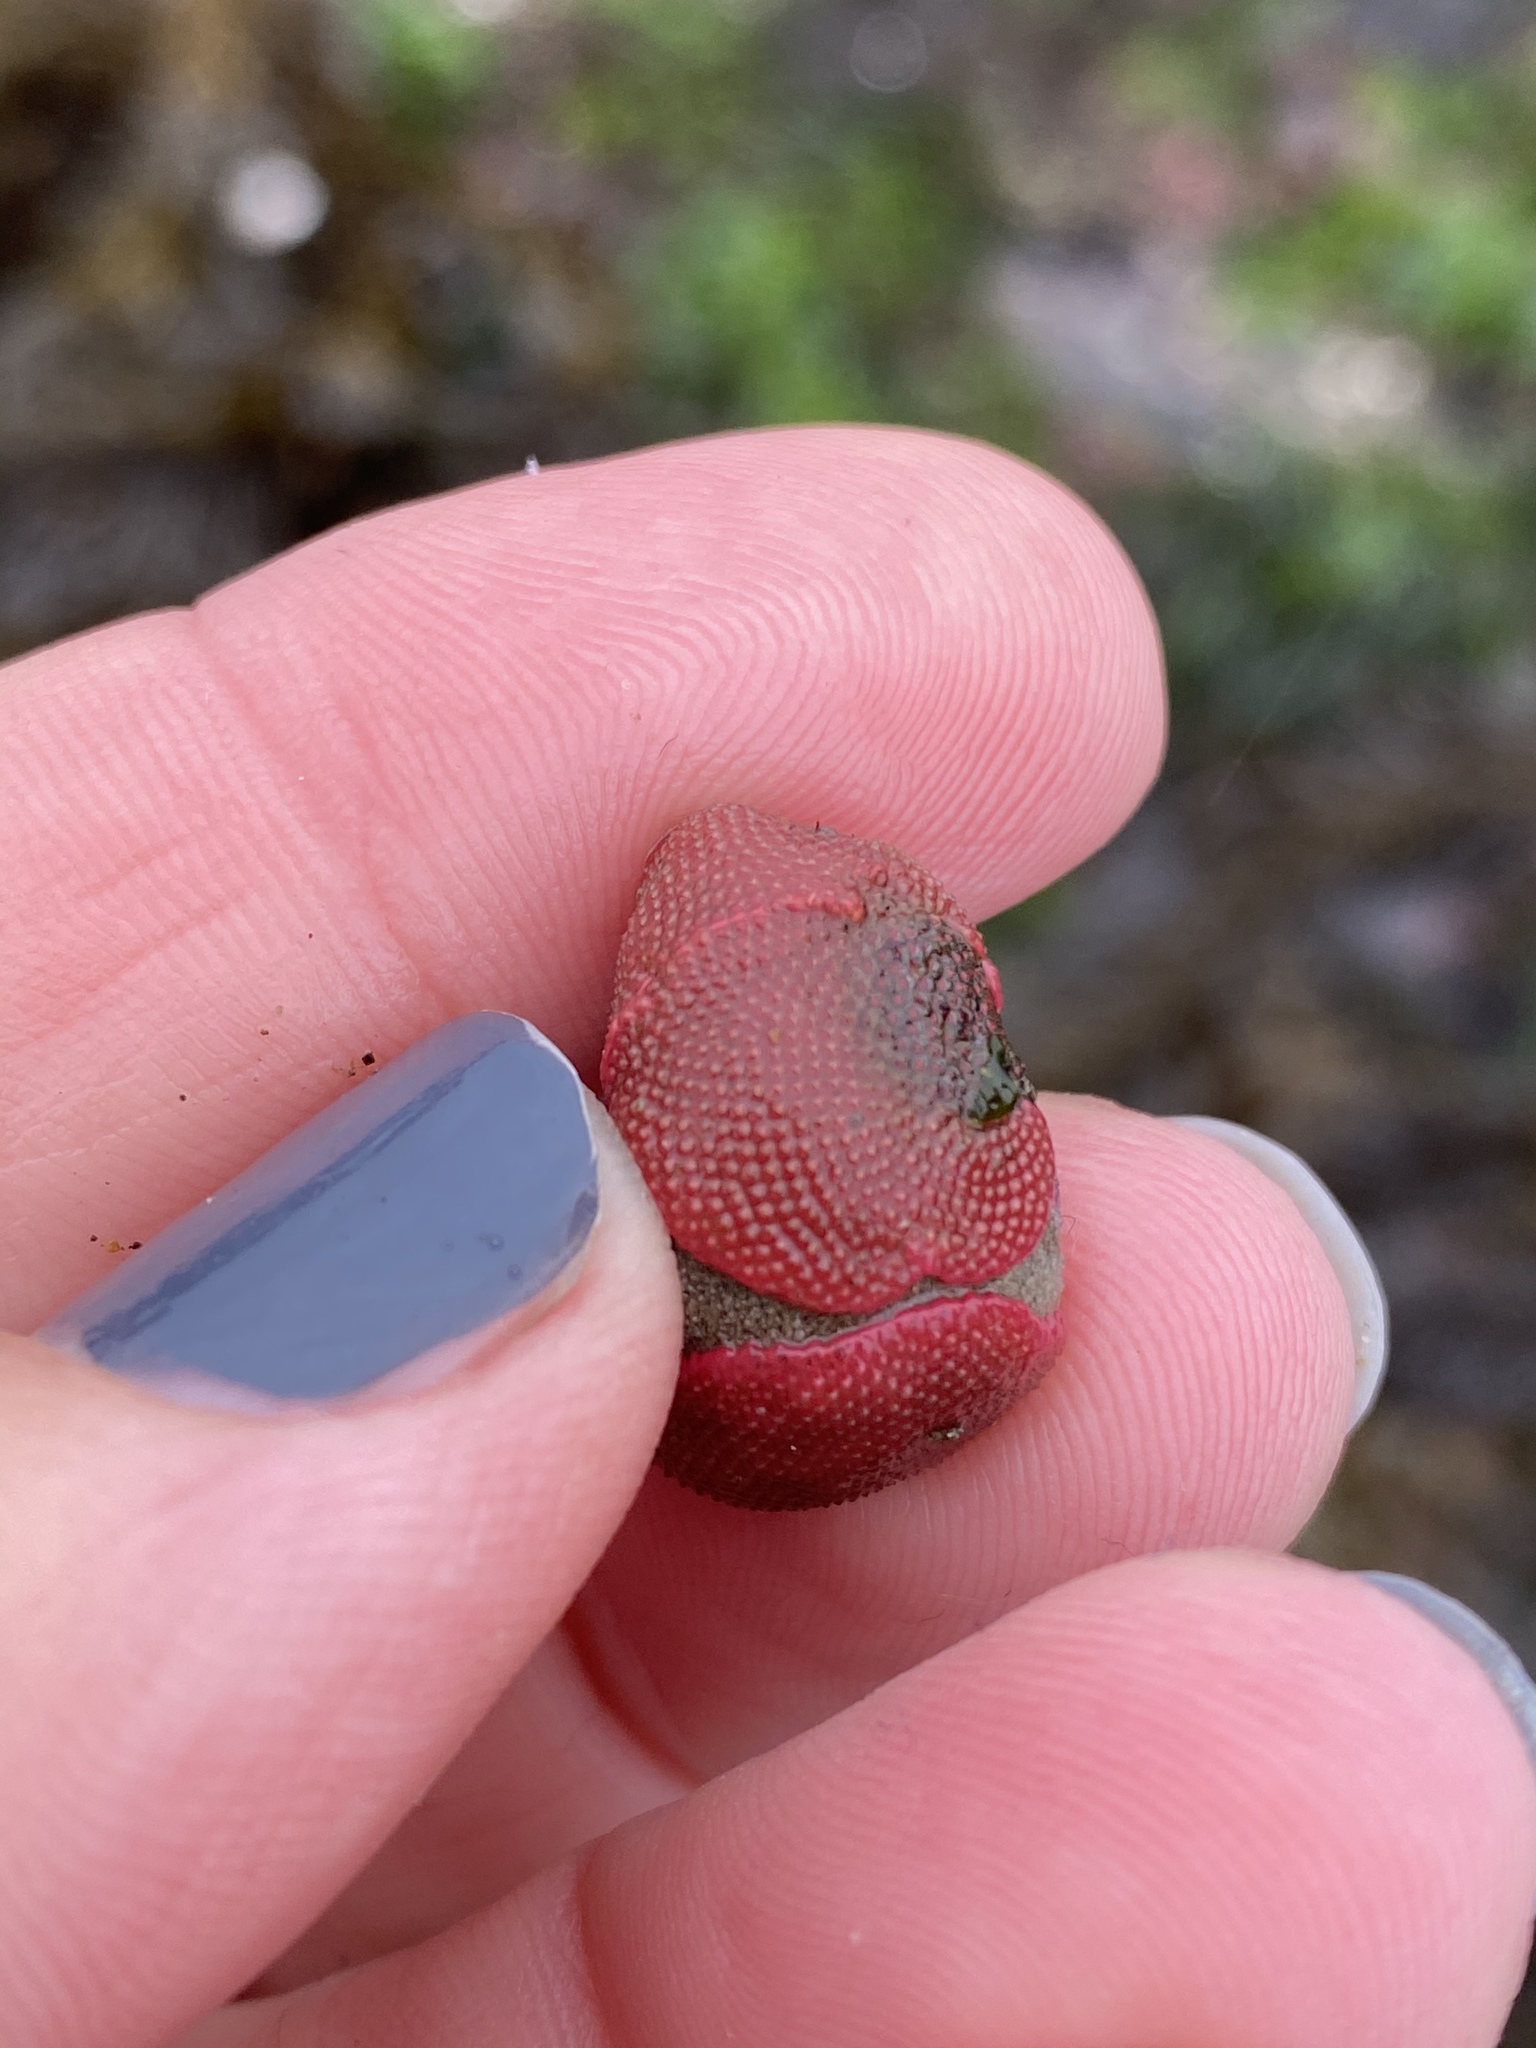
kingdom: Animalia
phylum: Bryozoa
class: Gymnolaemata
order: Cheilostomatida
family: Eurystomellidae
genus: Integripelta
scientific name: Integripelta bilabiata
